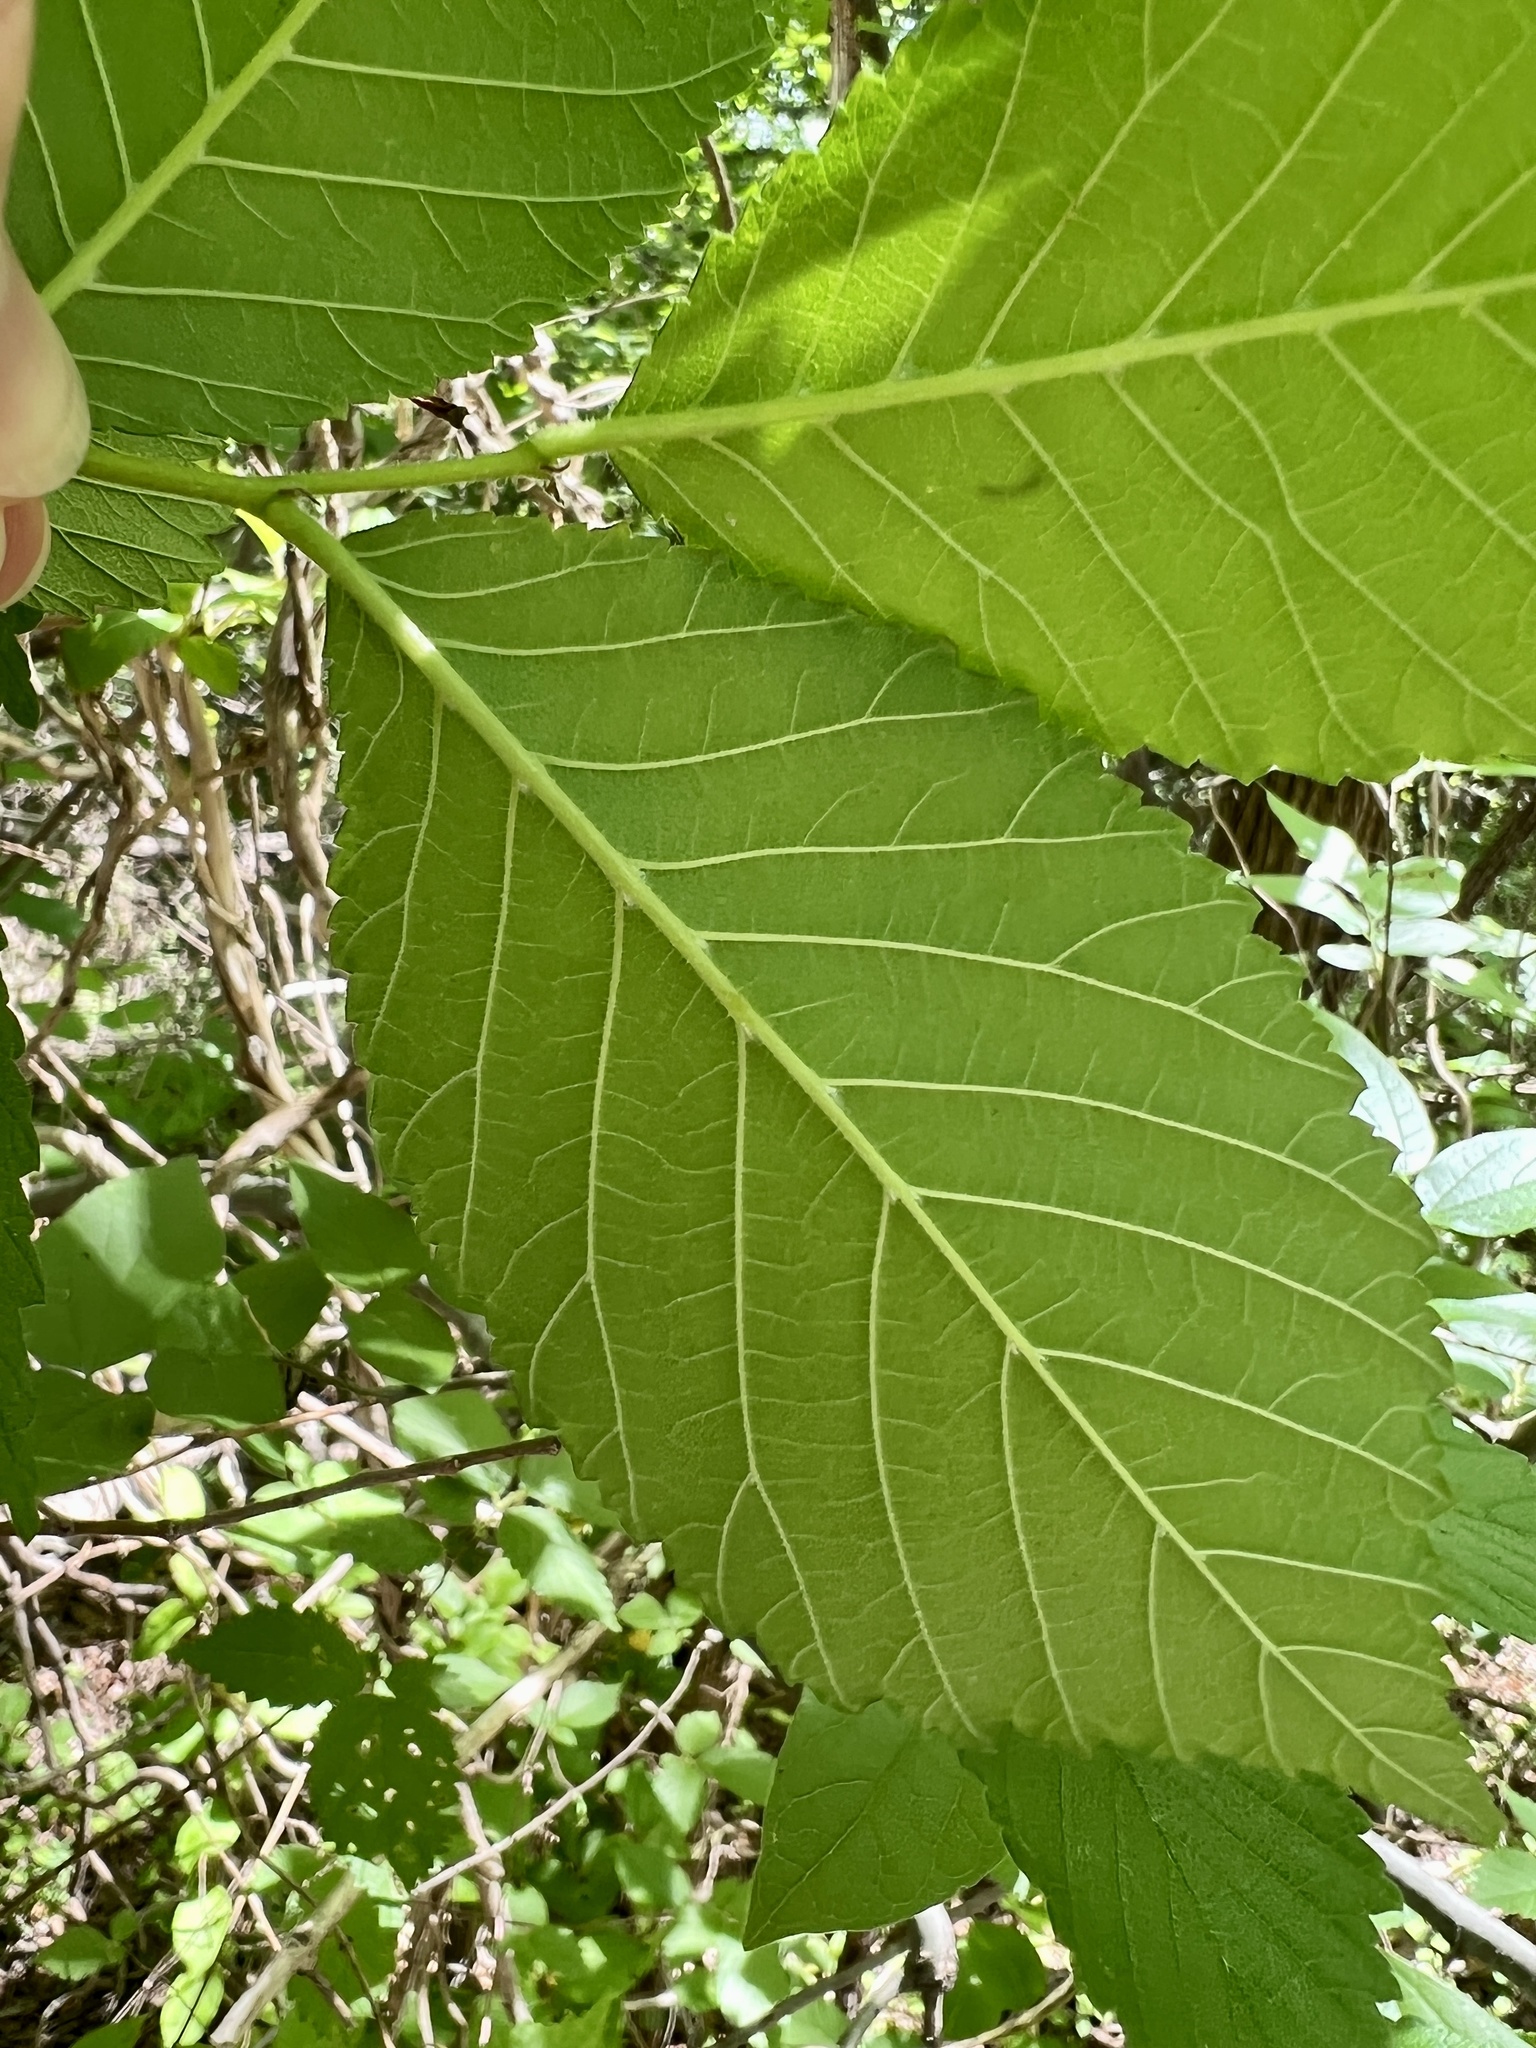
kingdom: Plantae
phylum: Tracheophyta
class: Magnoliopsida
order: Rosales
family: Ulmaceae
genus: Ulmus
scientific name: Ulmus rubra
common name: Slippery elm
